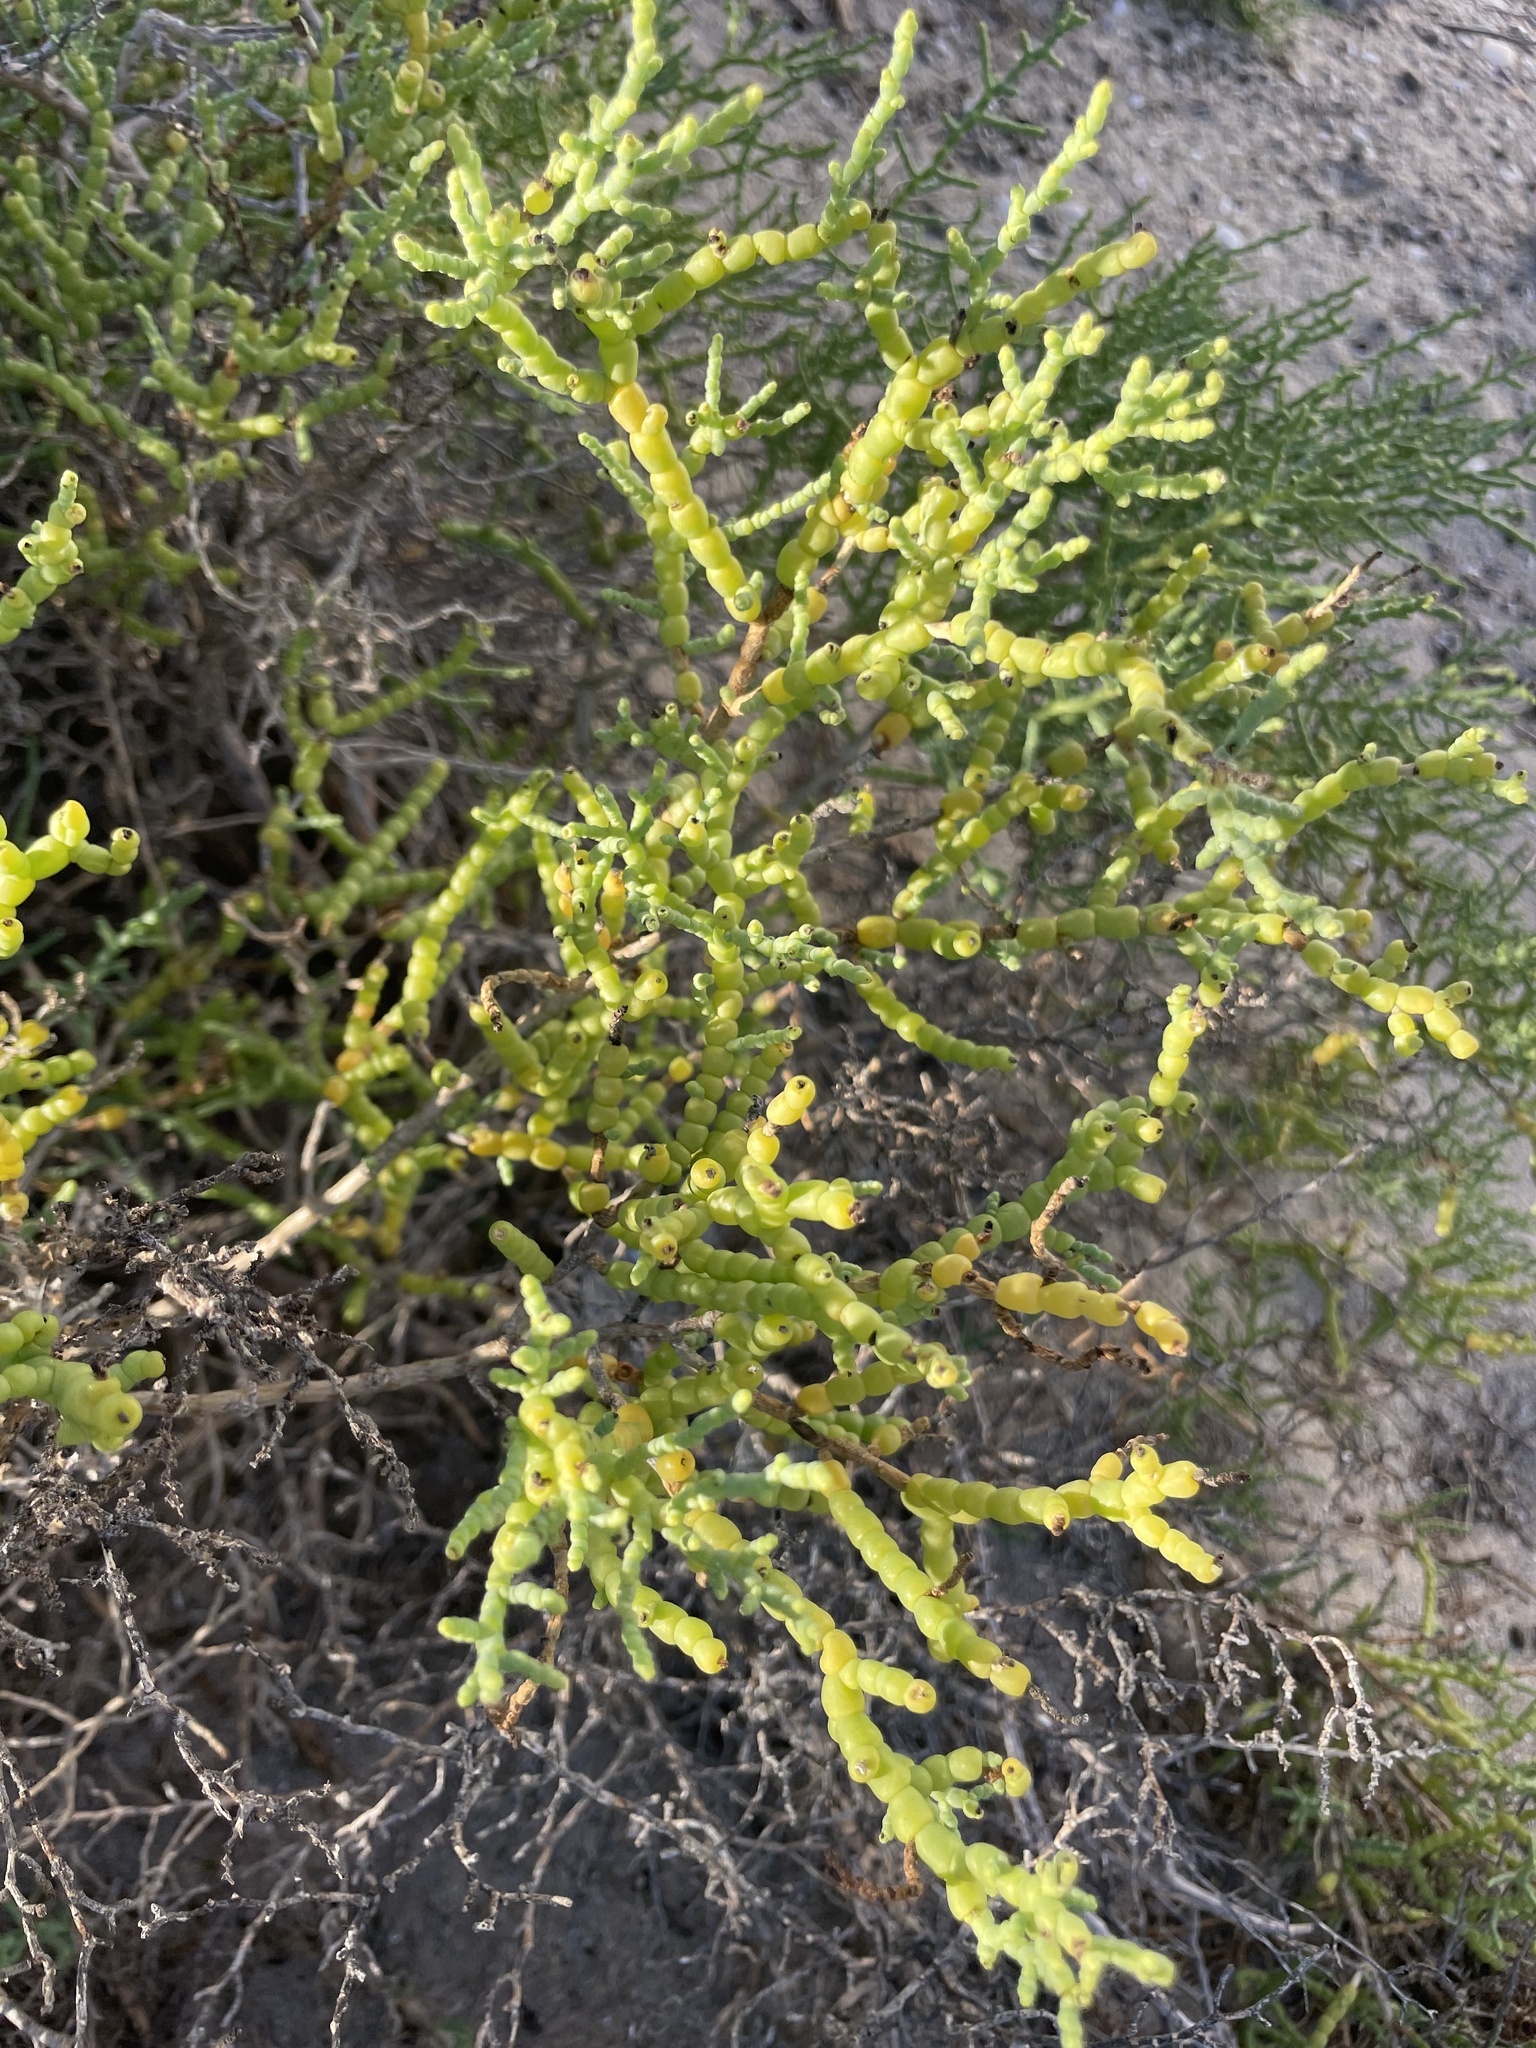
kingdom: Plantae
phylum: Tracheophyta
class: Magnoliopsida
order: Caryophyllales
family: Amaranthaceae
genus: Allenrolfea
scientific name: Allenrolfea occidentalis
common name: Iodine-bush
